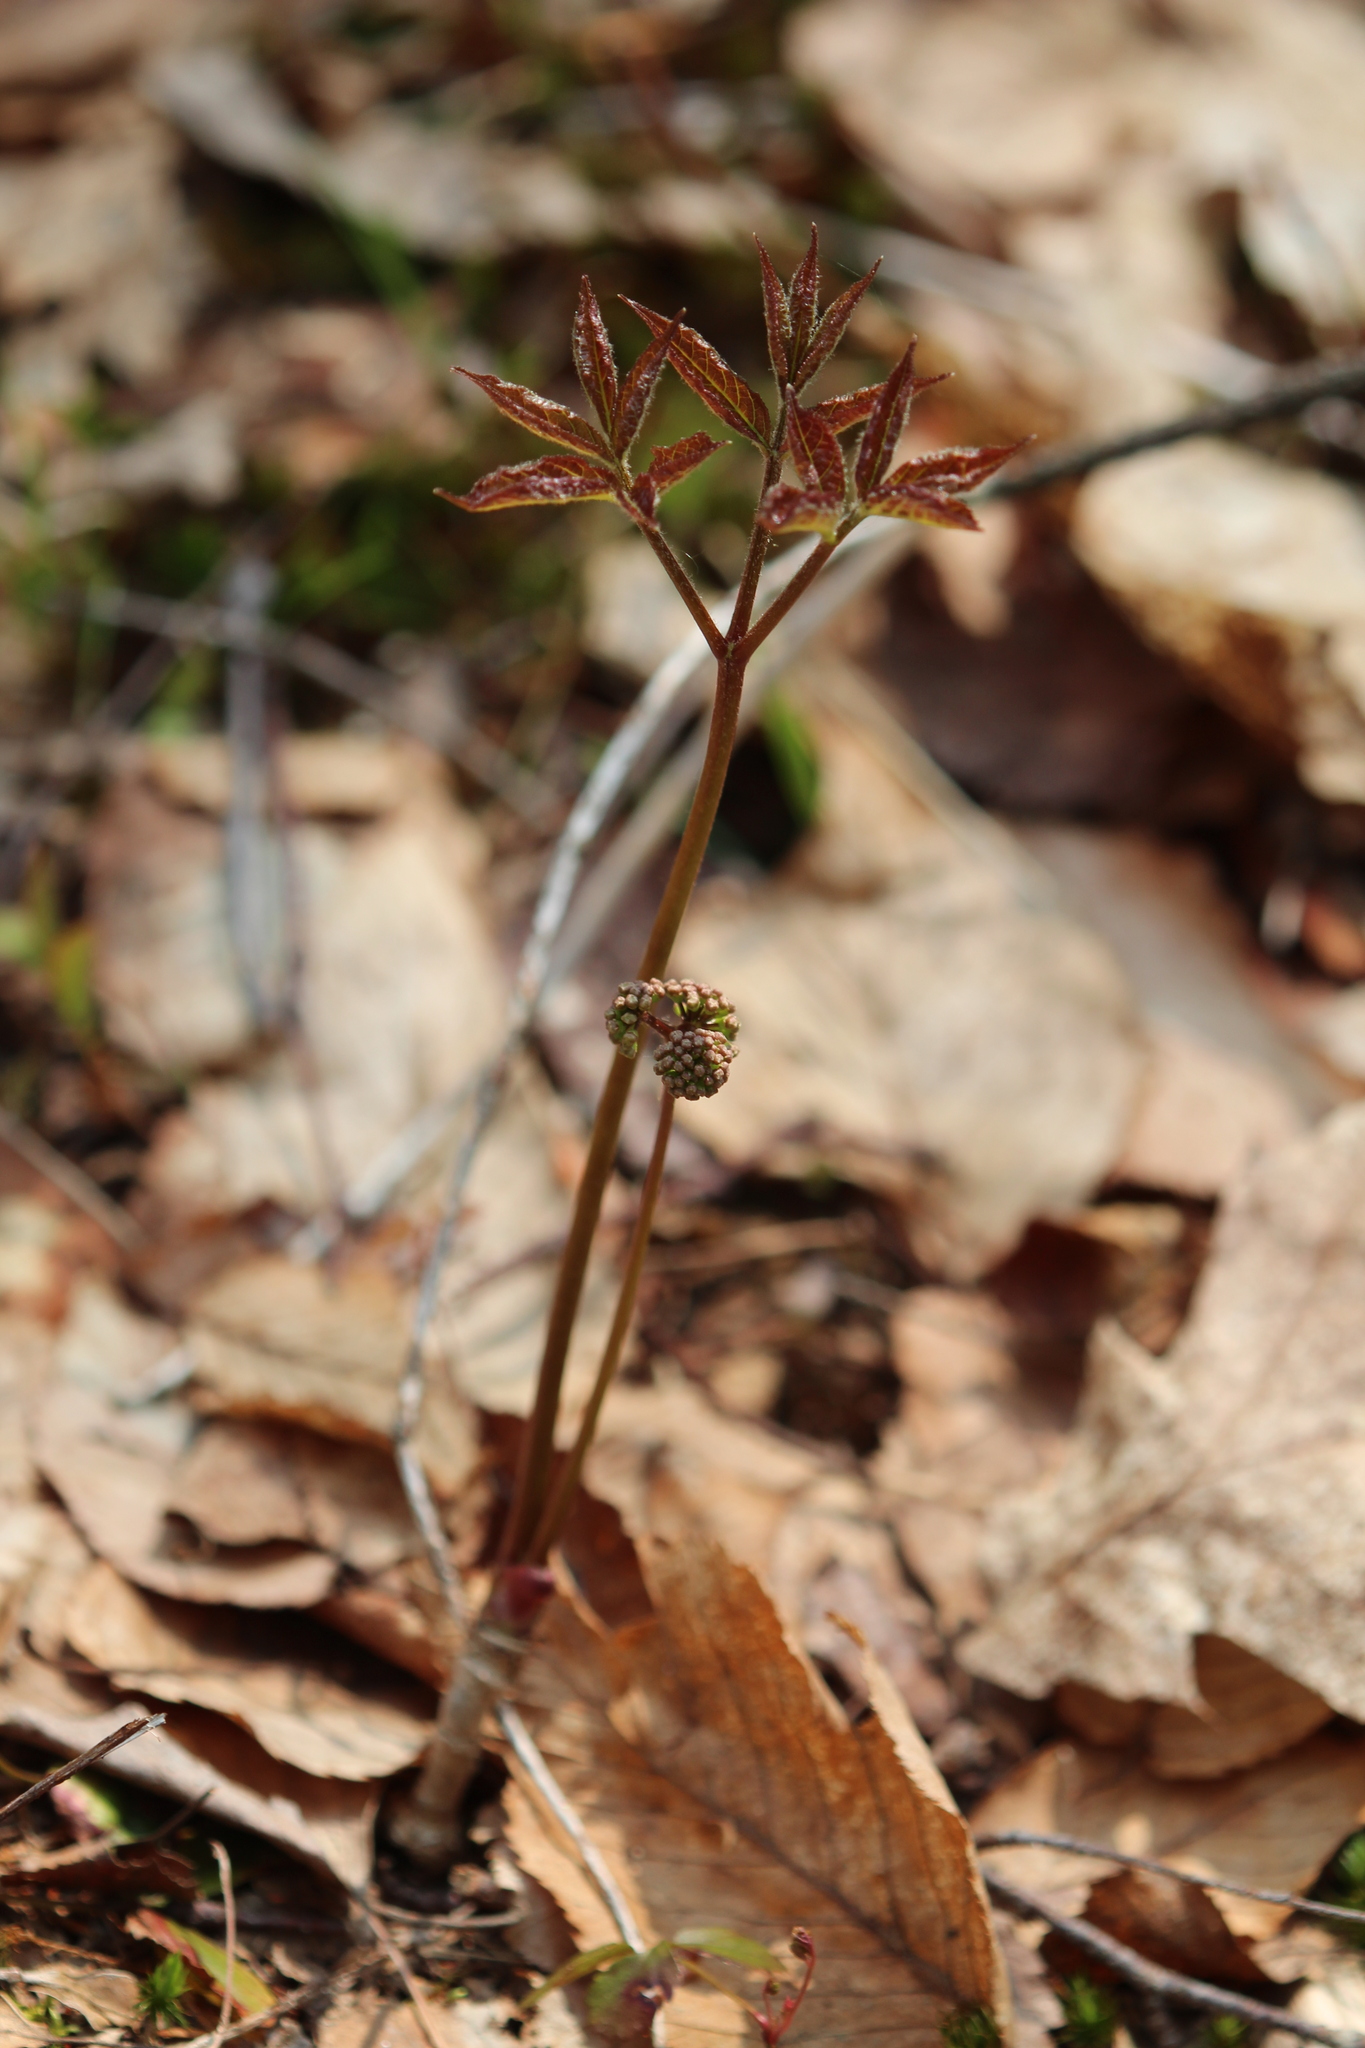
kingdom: Plantae
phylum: Tracheophyta
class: Magnoliopsida
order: Apiales
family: Araliaceae
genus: Aralia
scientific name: Aralia nudicaulis
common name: Wild sarsaparilla
